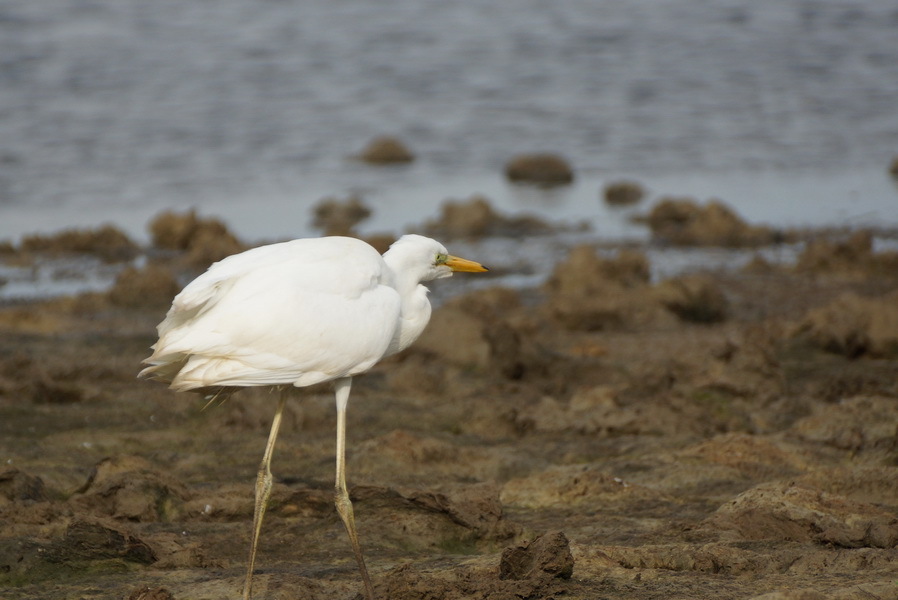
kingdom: Animalia
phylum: Chordata
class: Aves
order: Pelecaniformes
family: Ardeidae
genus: Ardea
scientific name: Ardea alba
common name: Great egret
